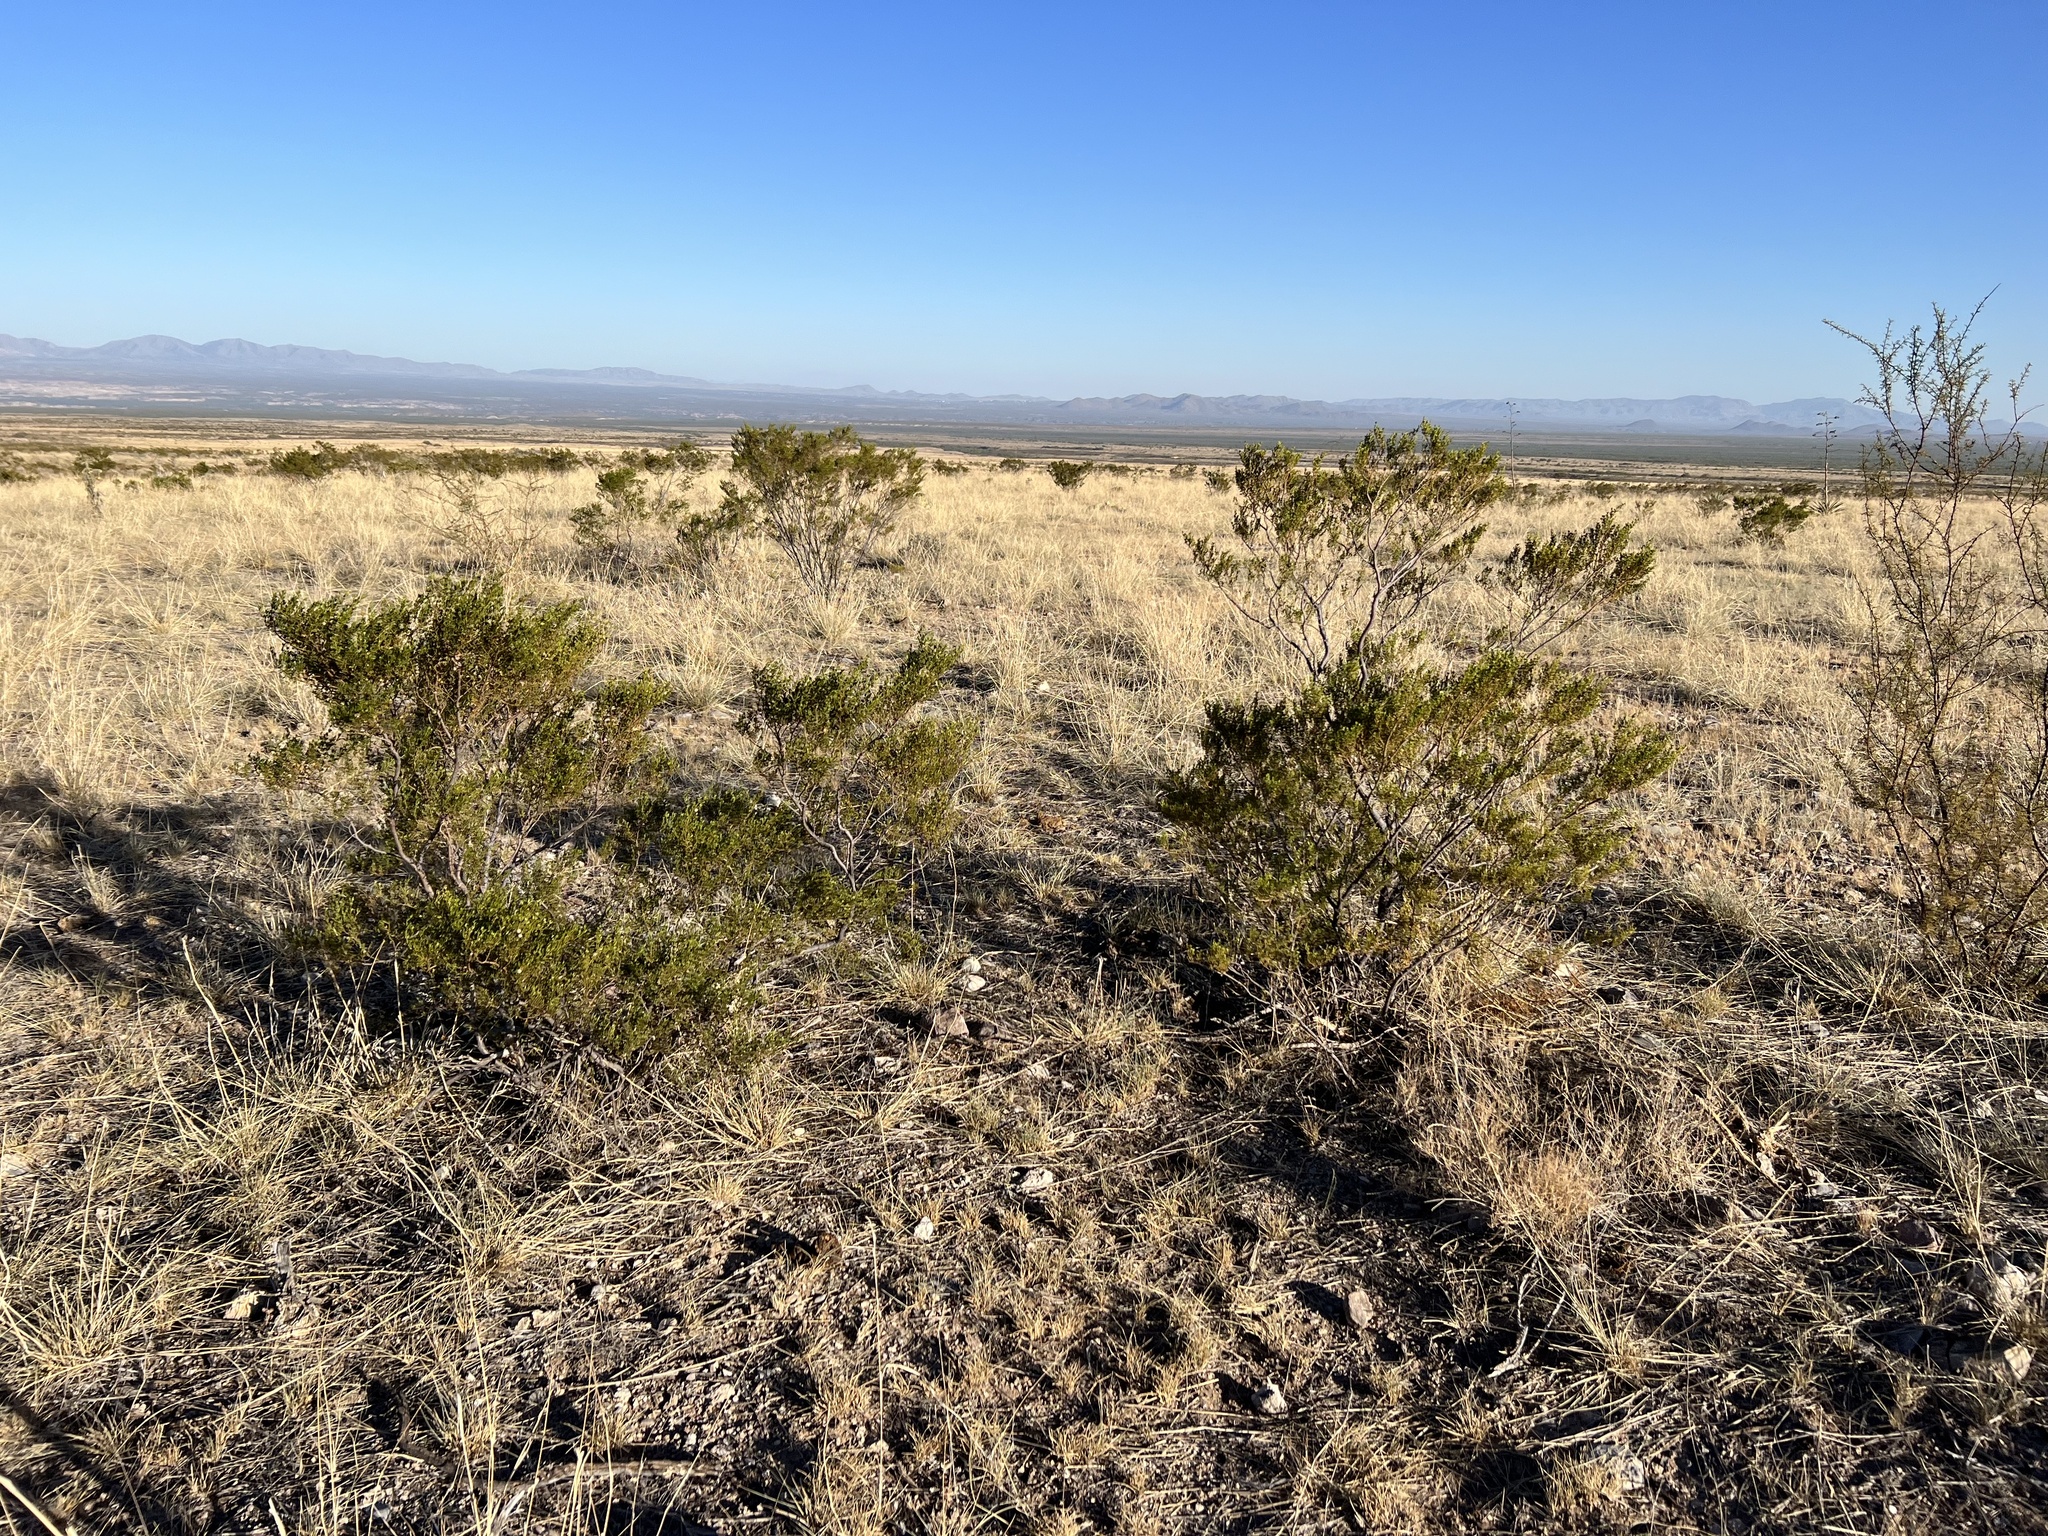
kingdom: Plantae
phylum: Tracheophyta
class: Magnoliopsida
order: Zygophyllales
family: Zygophyllaceae
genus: Larrea
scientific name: Larrea tridentata
